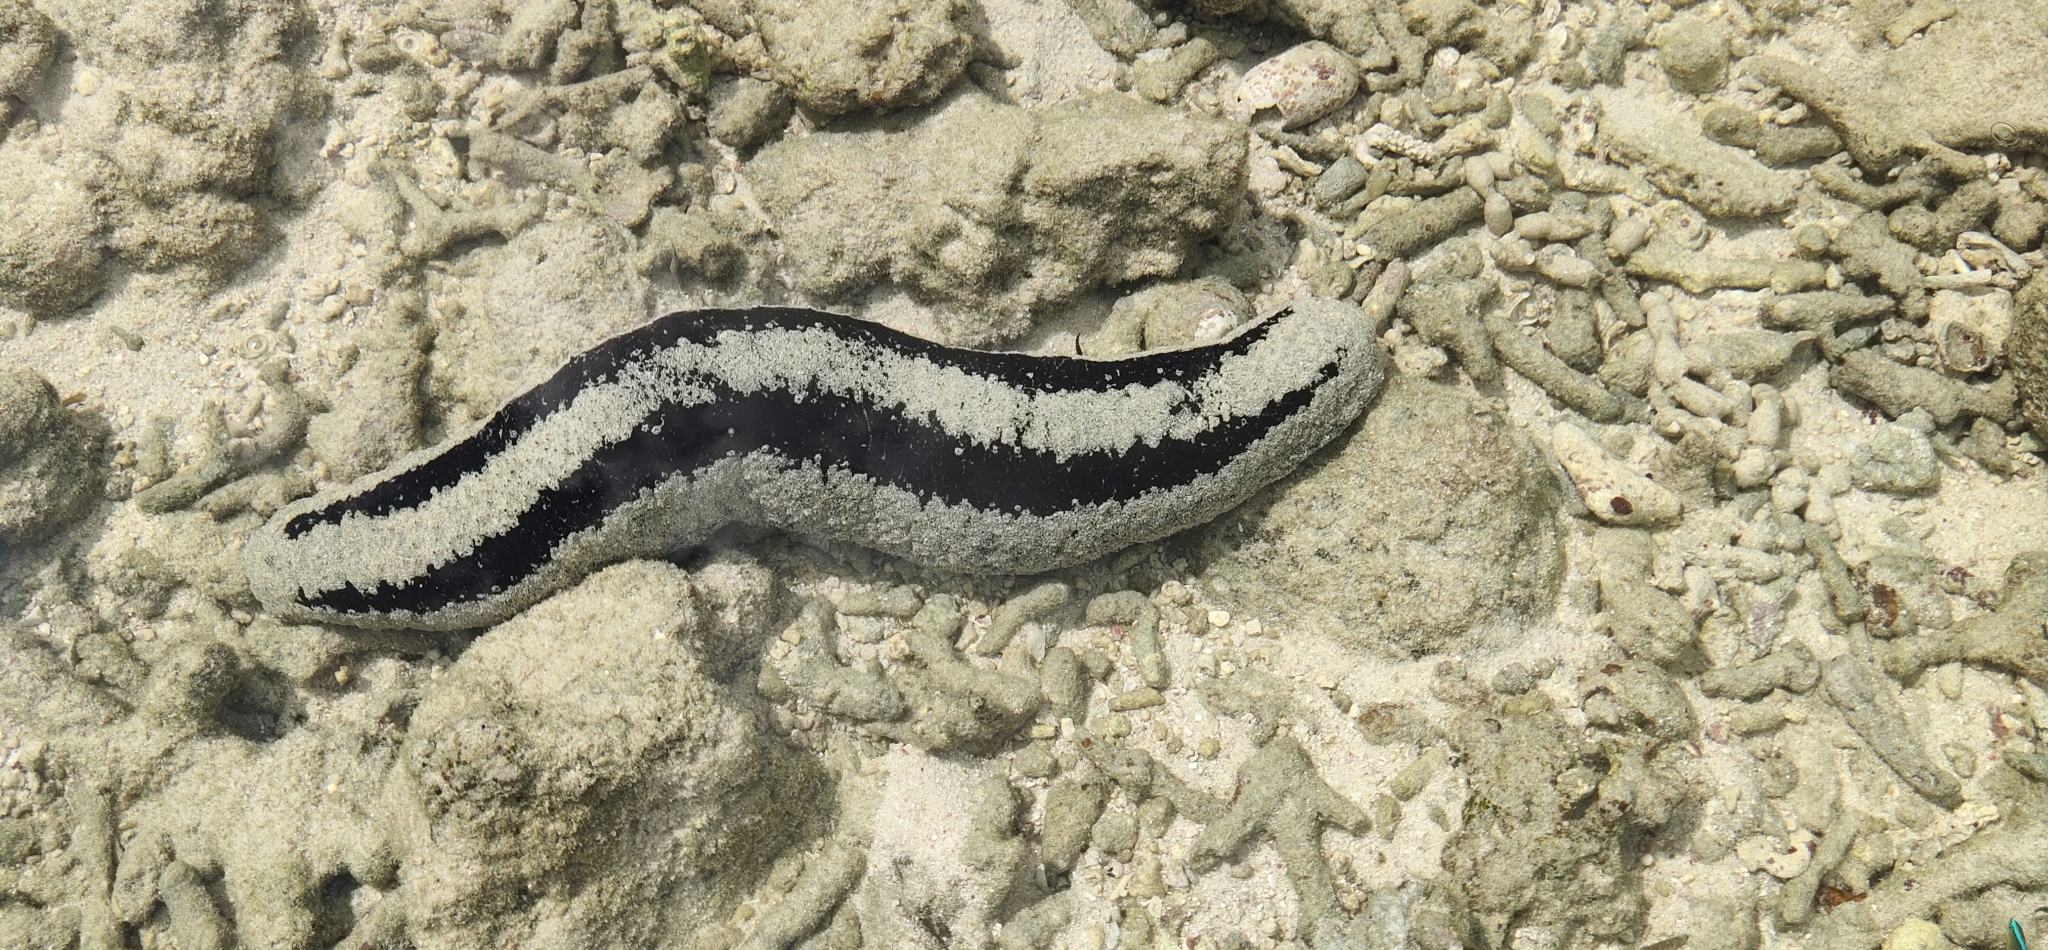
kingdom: Animalia
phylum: Echinodermata
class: Holothuroidea
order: Holothuriida
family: Holothuriidae
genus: Holothuria
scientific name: Holothuria atra
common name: Lollyfish
